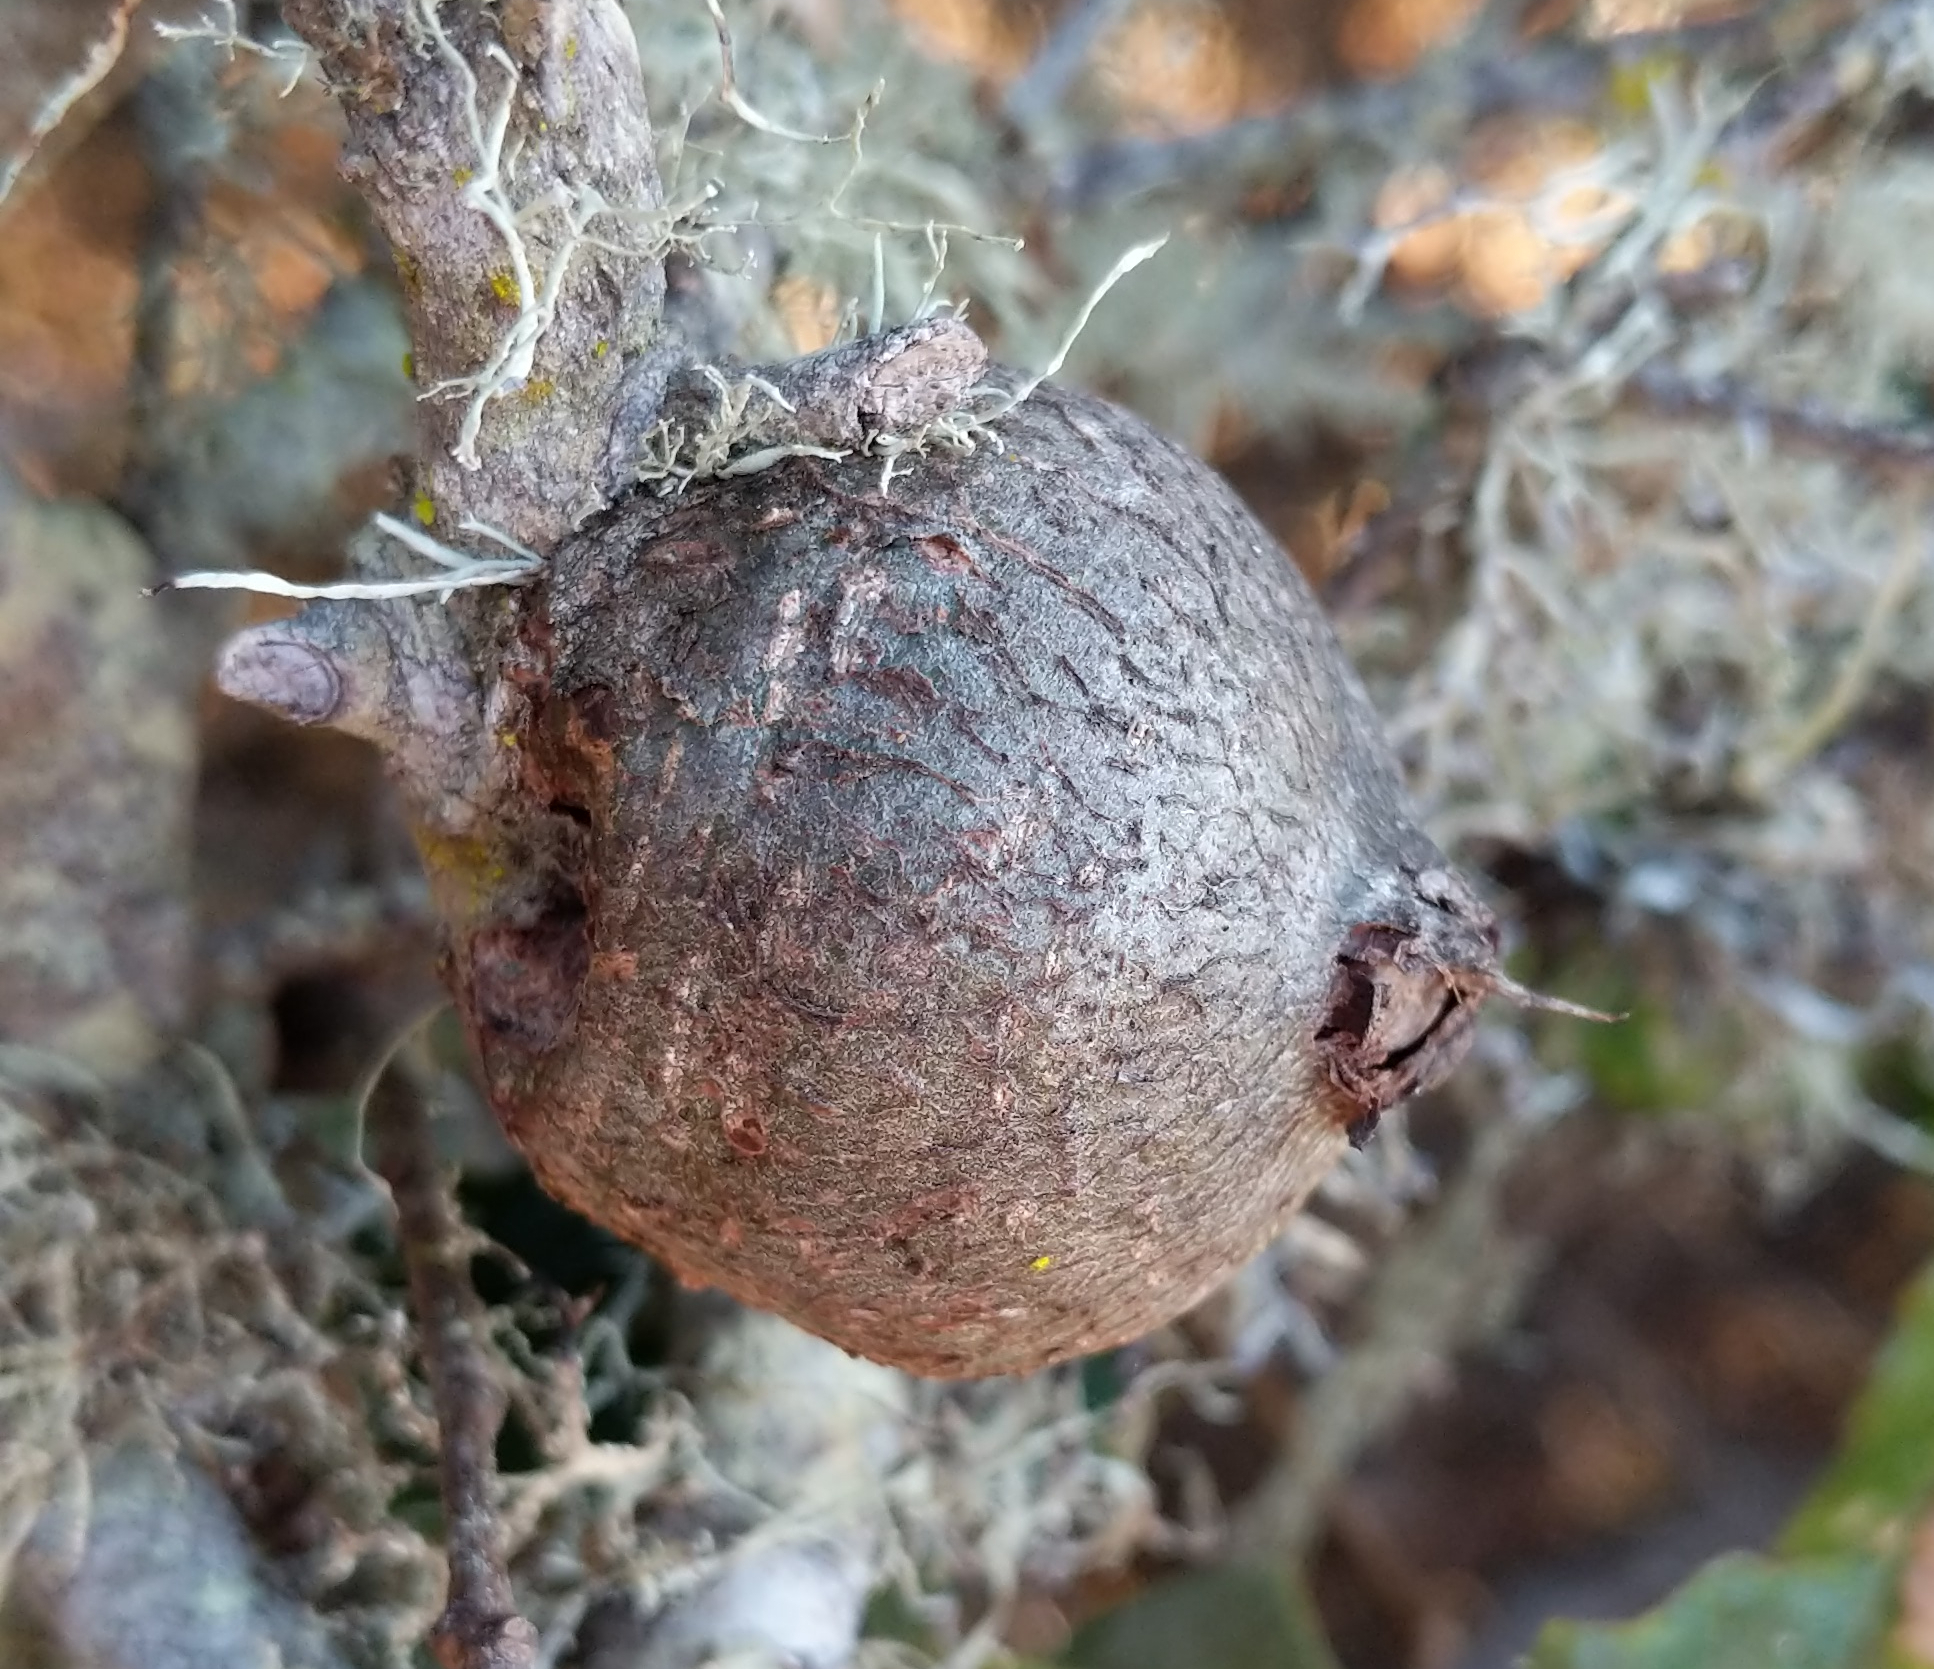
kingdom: Animalia
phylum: Arthropoda
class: Insecta
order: Hymenoptera
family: Cynipidae
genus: Callirhytis
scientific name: Callirhytis
